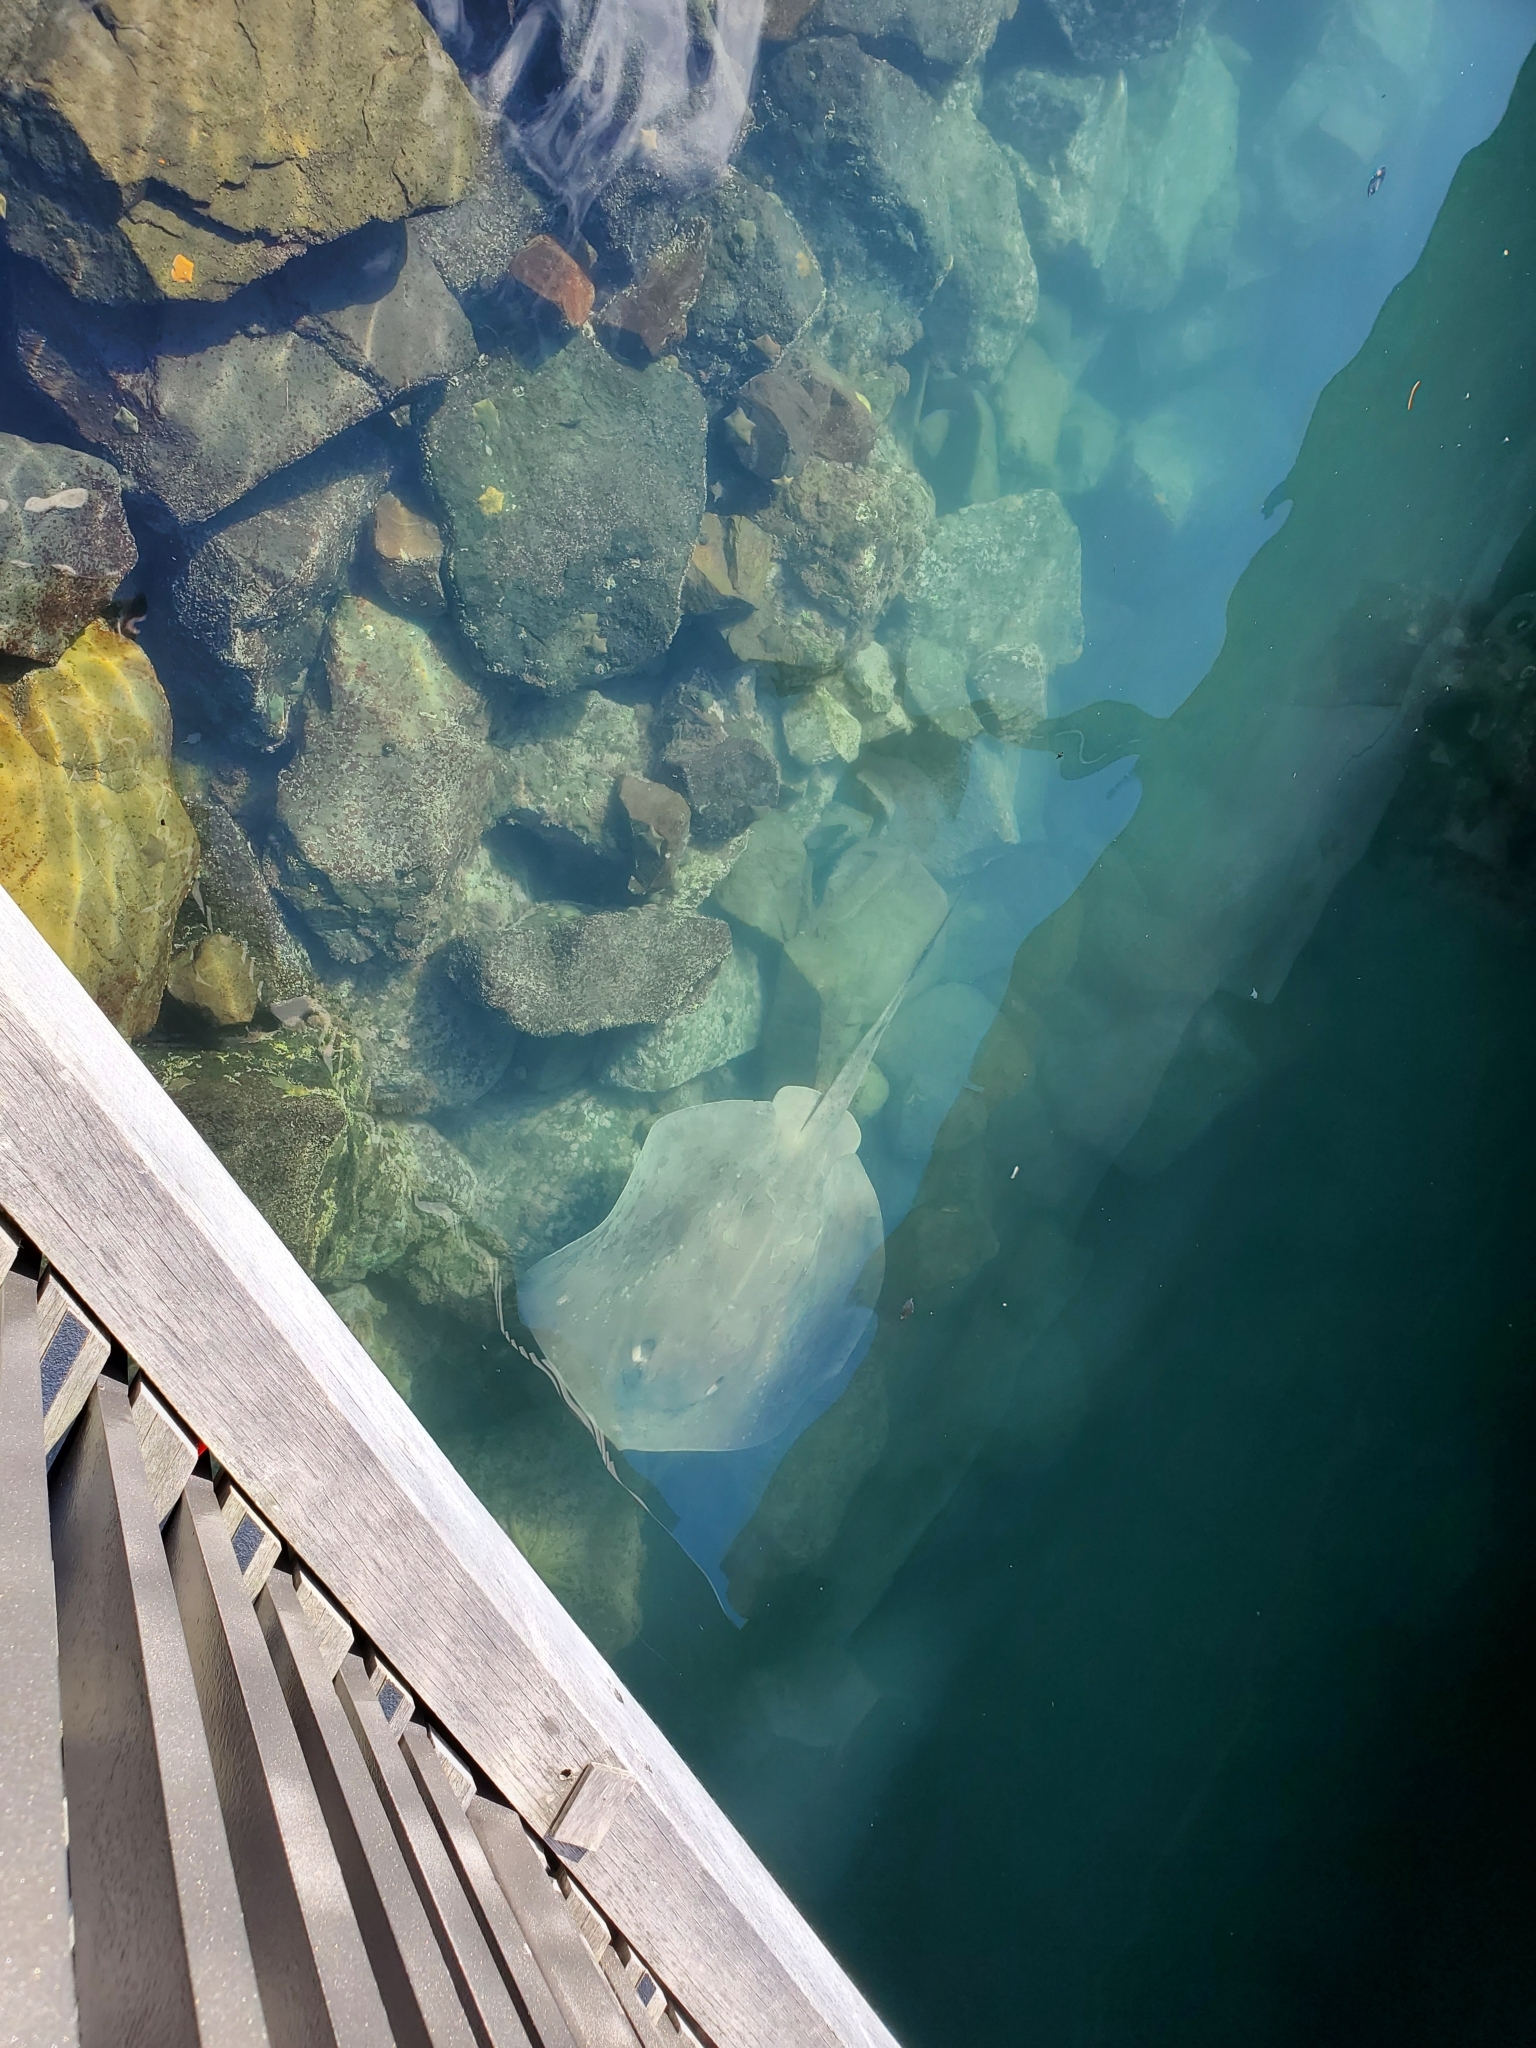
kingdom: Animalia
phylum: Chordata
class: Elasmobranchii
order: Myliobatiformes
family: Dasyatidae
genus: Bathytoshia
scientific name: Bathytoshia brevicaudata
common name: Short-tail stingray
